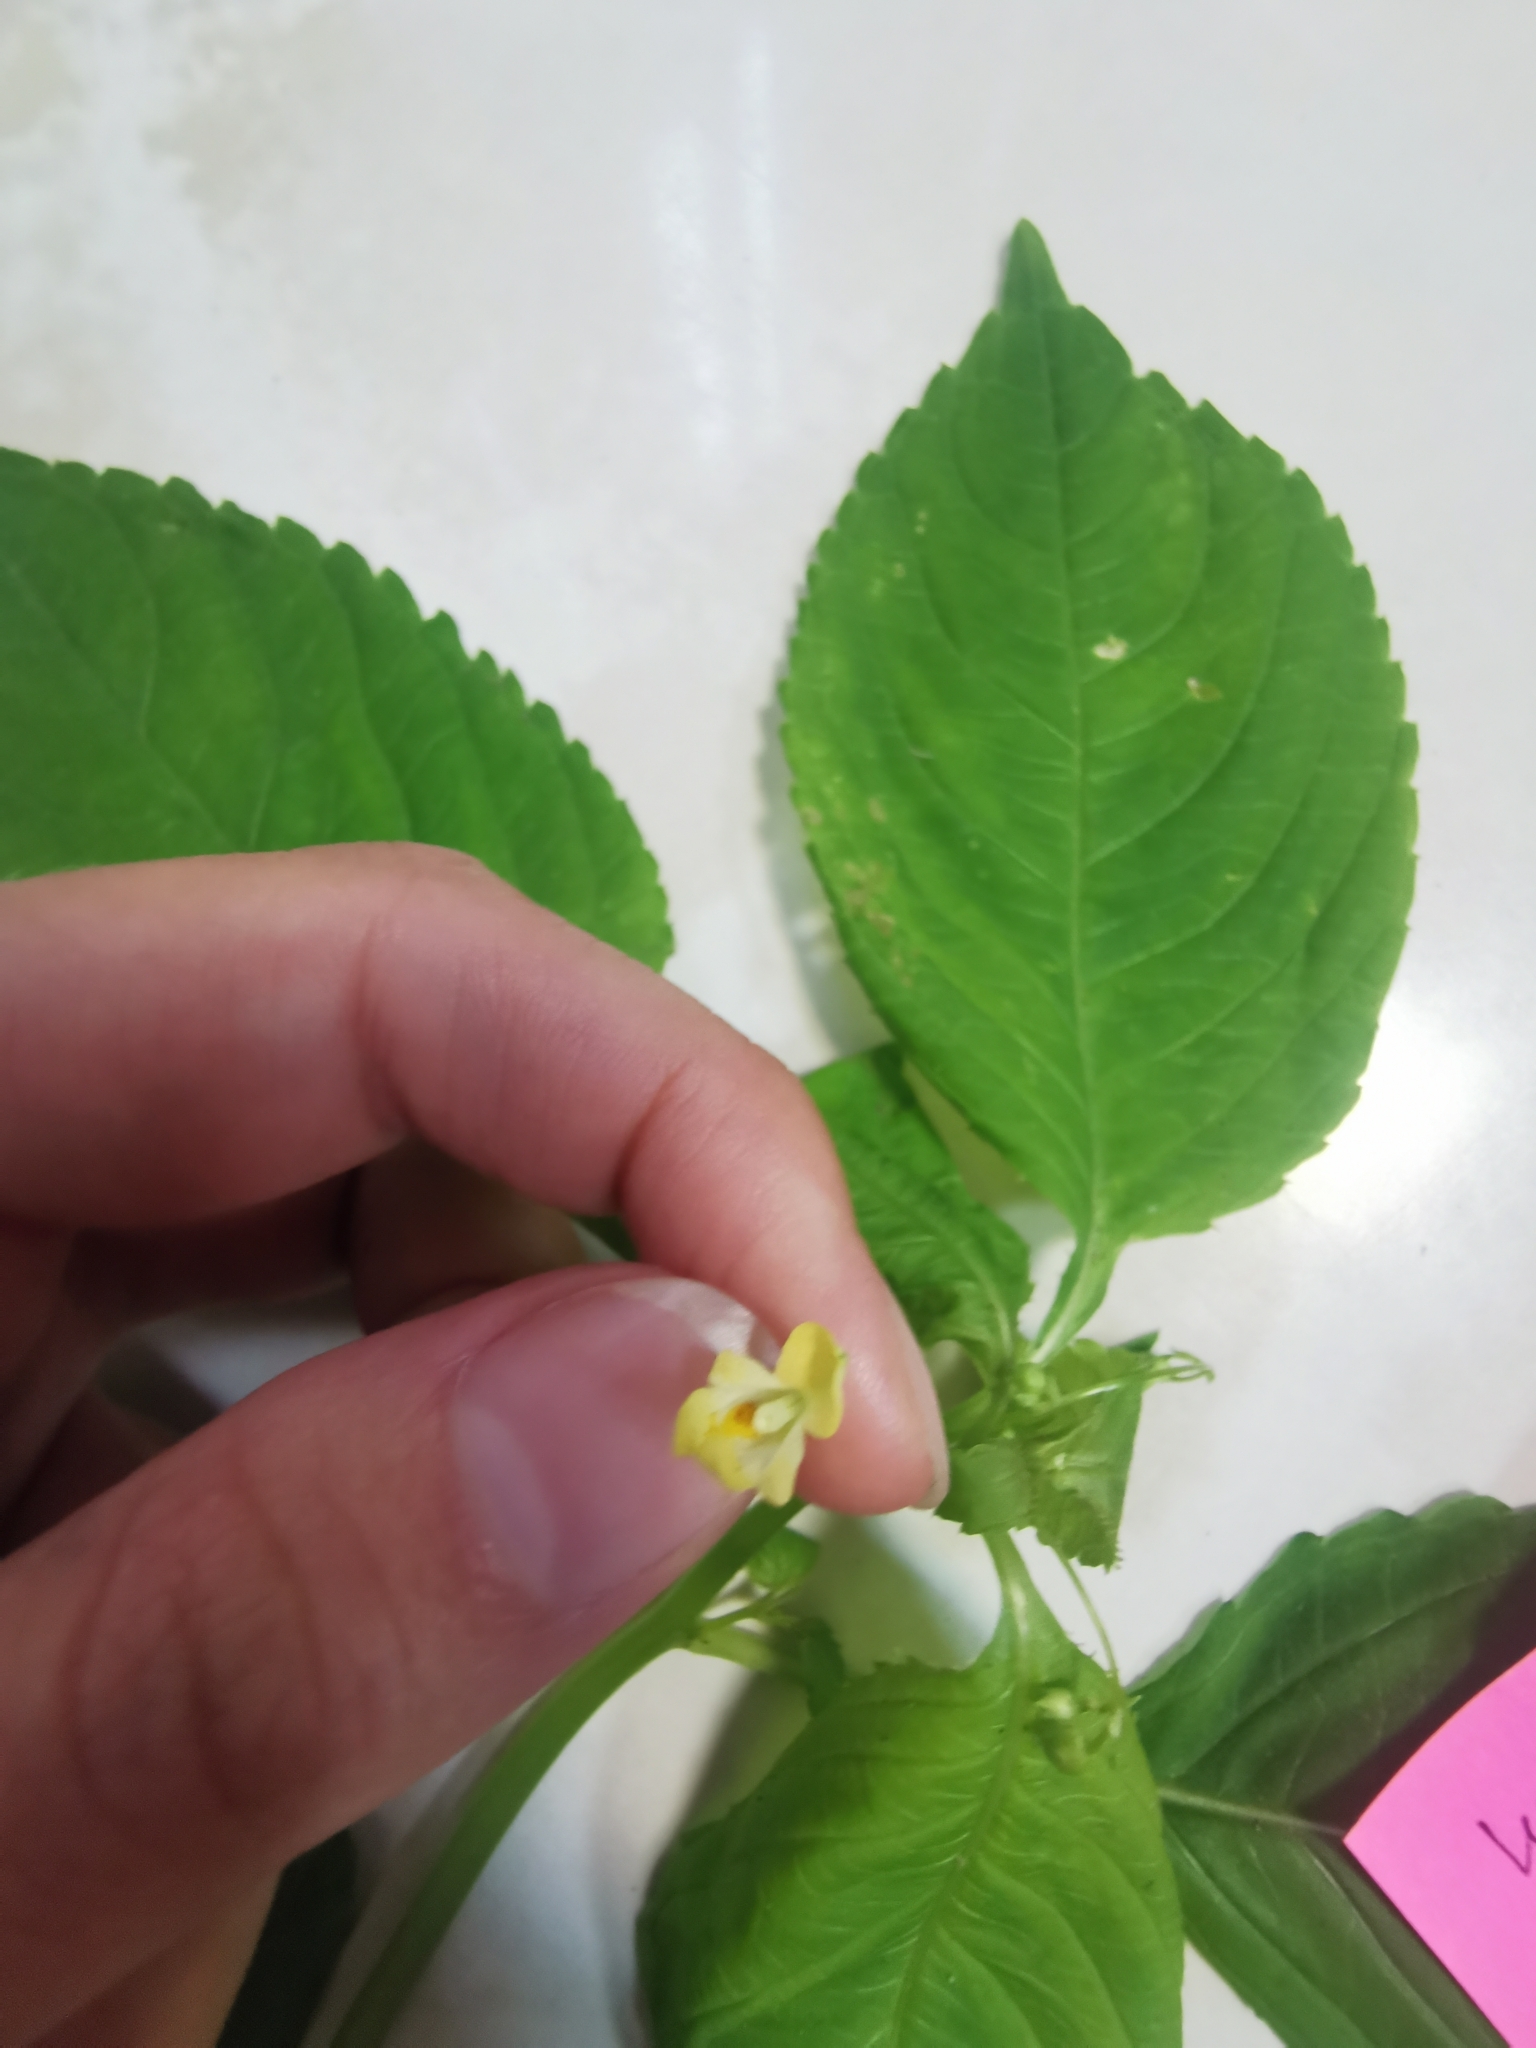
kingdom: Plantae
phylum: Tracheophyta
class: Magnoliopsida
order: Ericales
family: Balsaminaceae
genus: Impatiens
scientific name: Impatiens parviflora
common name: Small balsam
